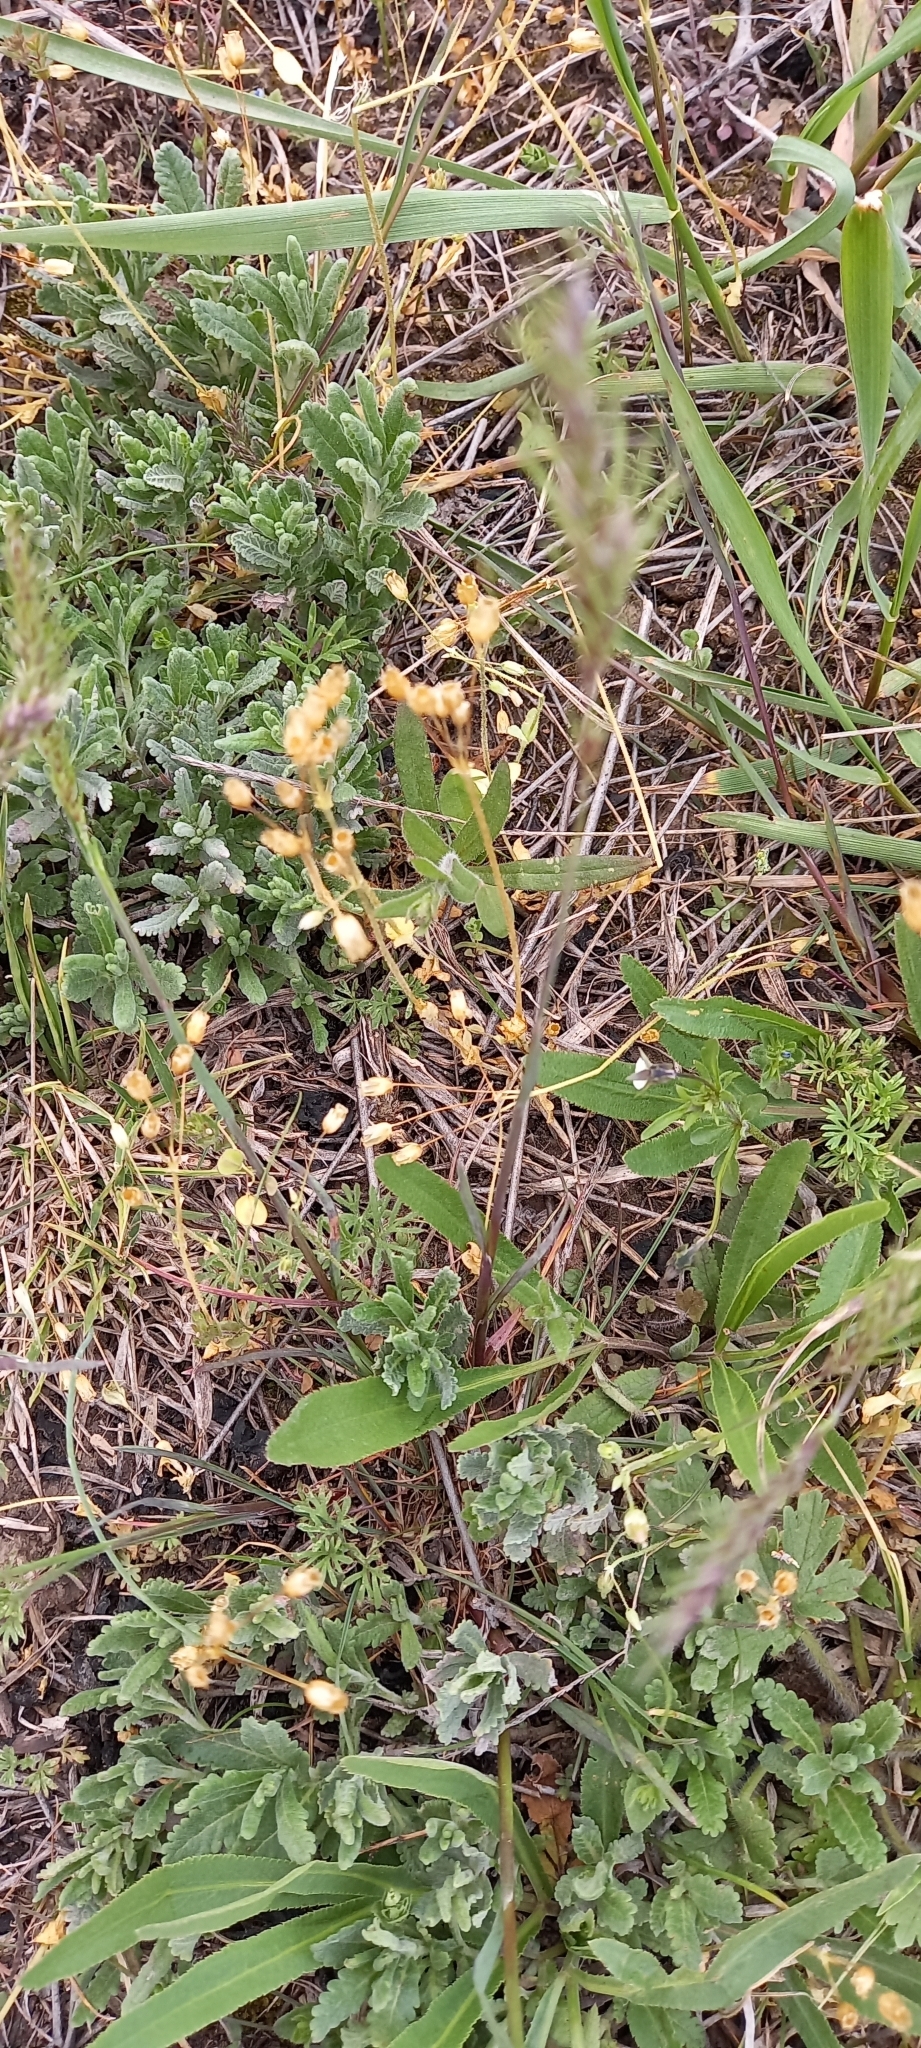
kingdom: Plantae
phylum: Tracheophyta
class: Magnoliopsida
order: Caryophyllales
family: Caryophyllaceae
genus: Holosteum
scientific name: Holosteum umbellatum
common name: Jagged chickweed
